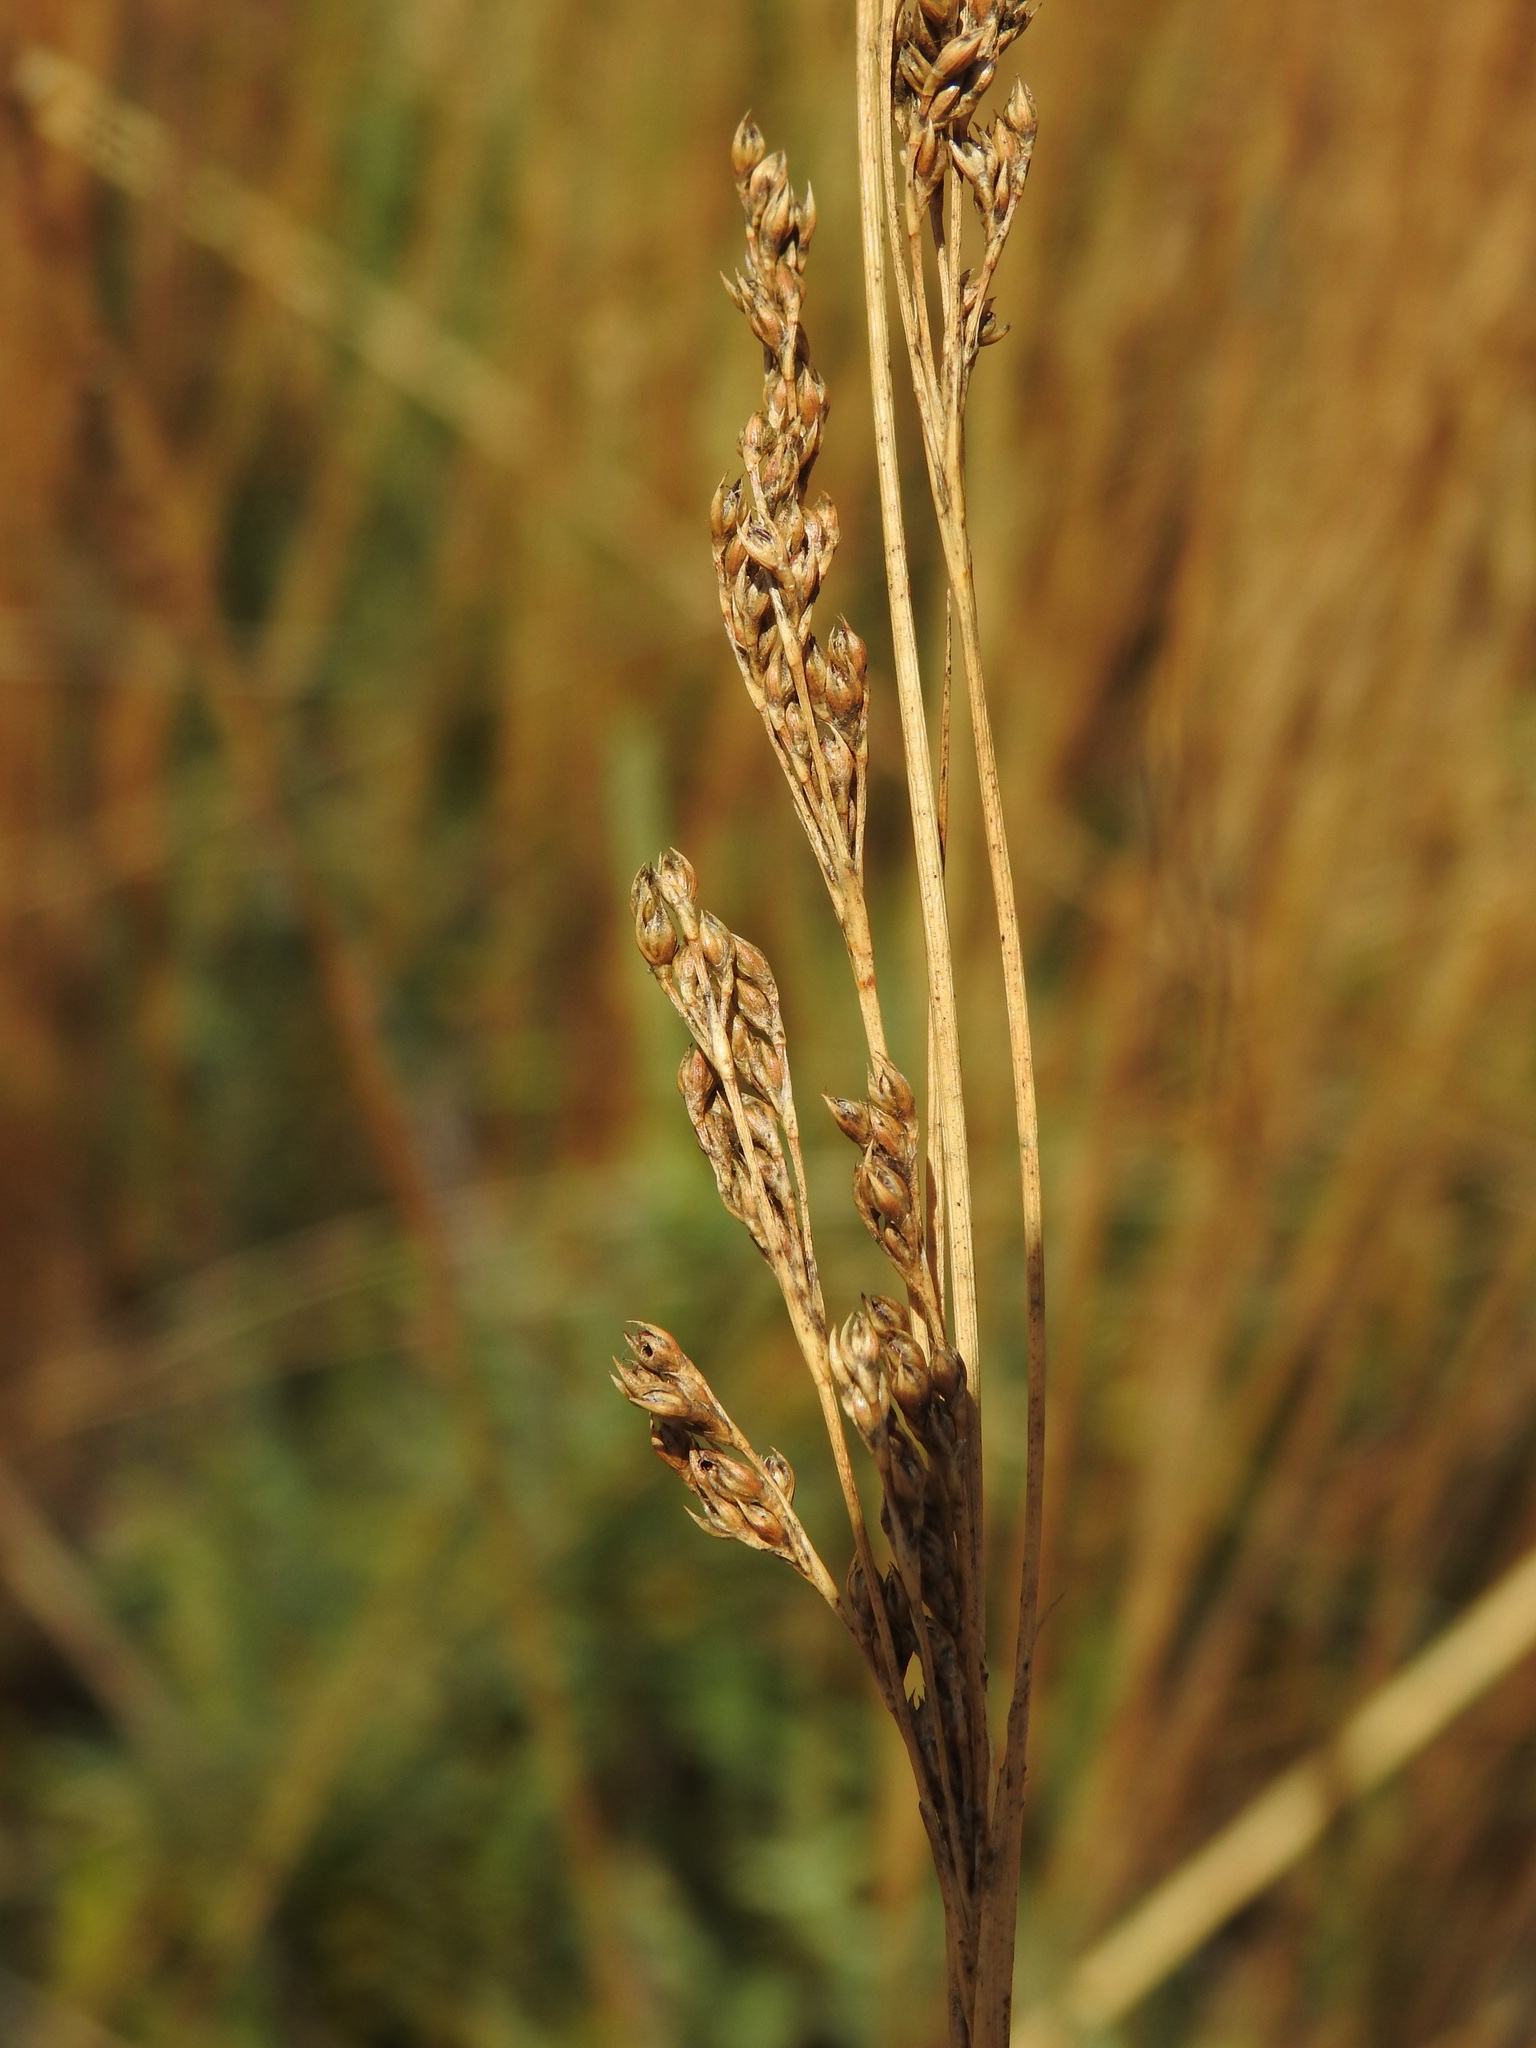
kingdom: Plantae
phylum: Tracheophyta
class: Liliopsida
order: Poales
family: Juncaceae
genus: Juncus
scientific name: Juncus subulatus
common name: Somerset rush
